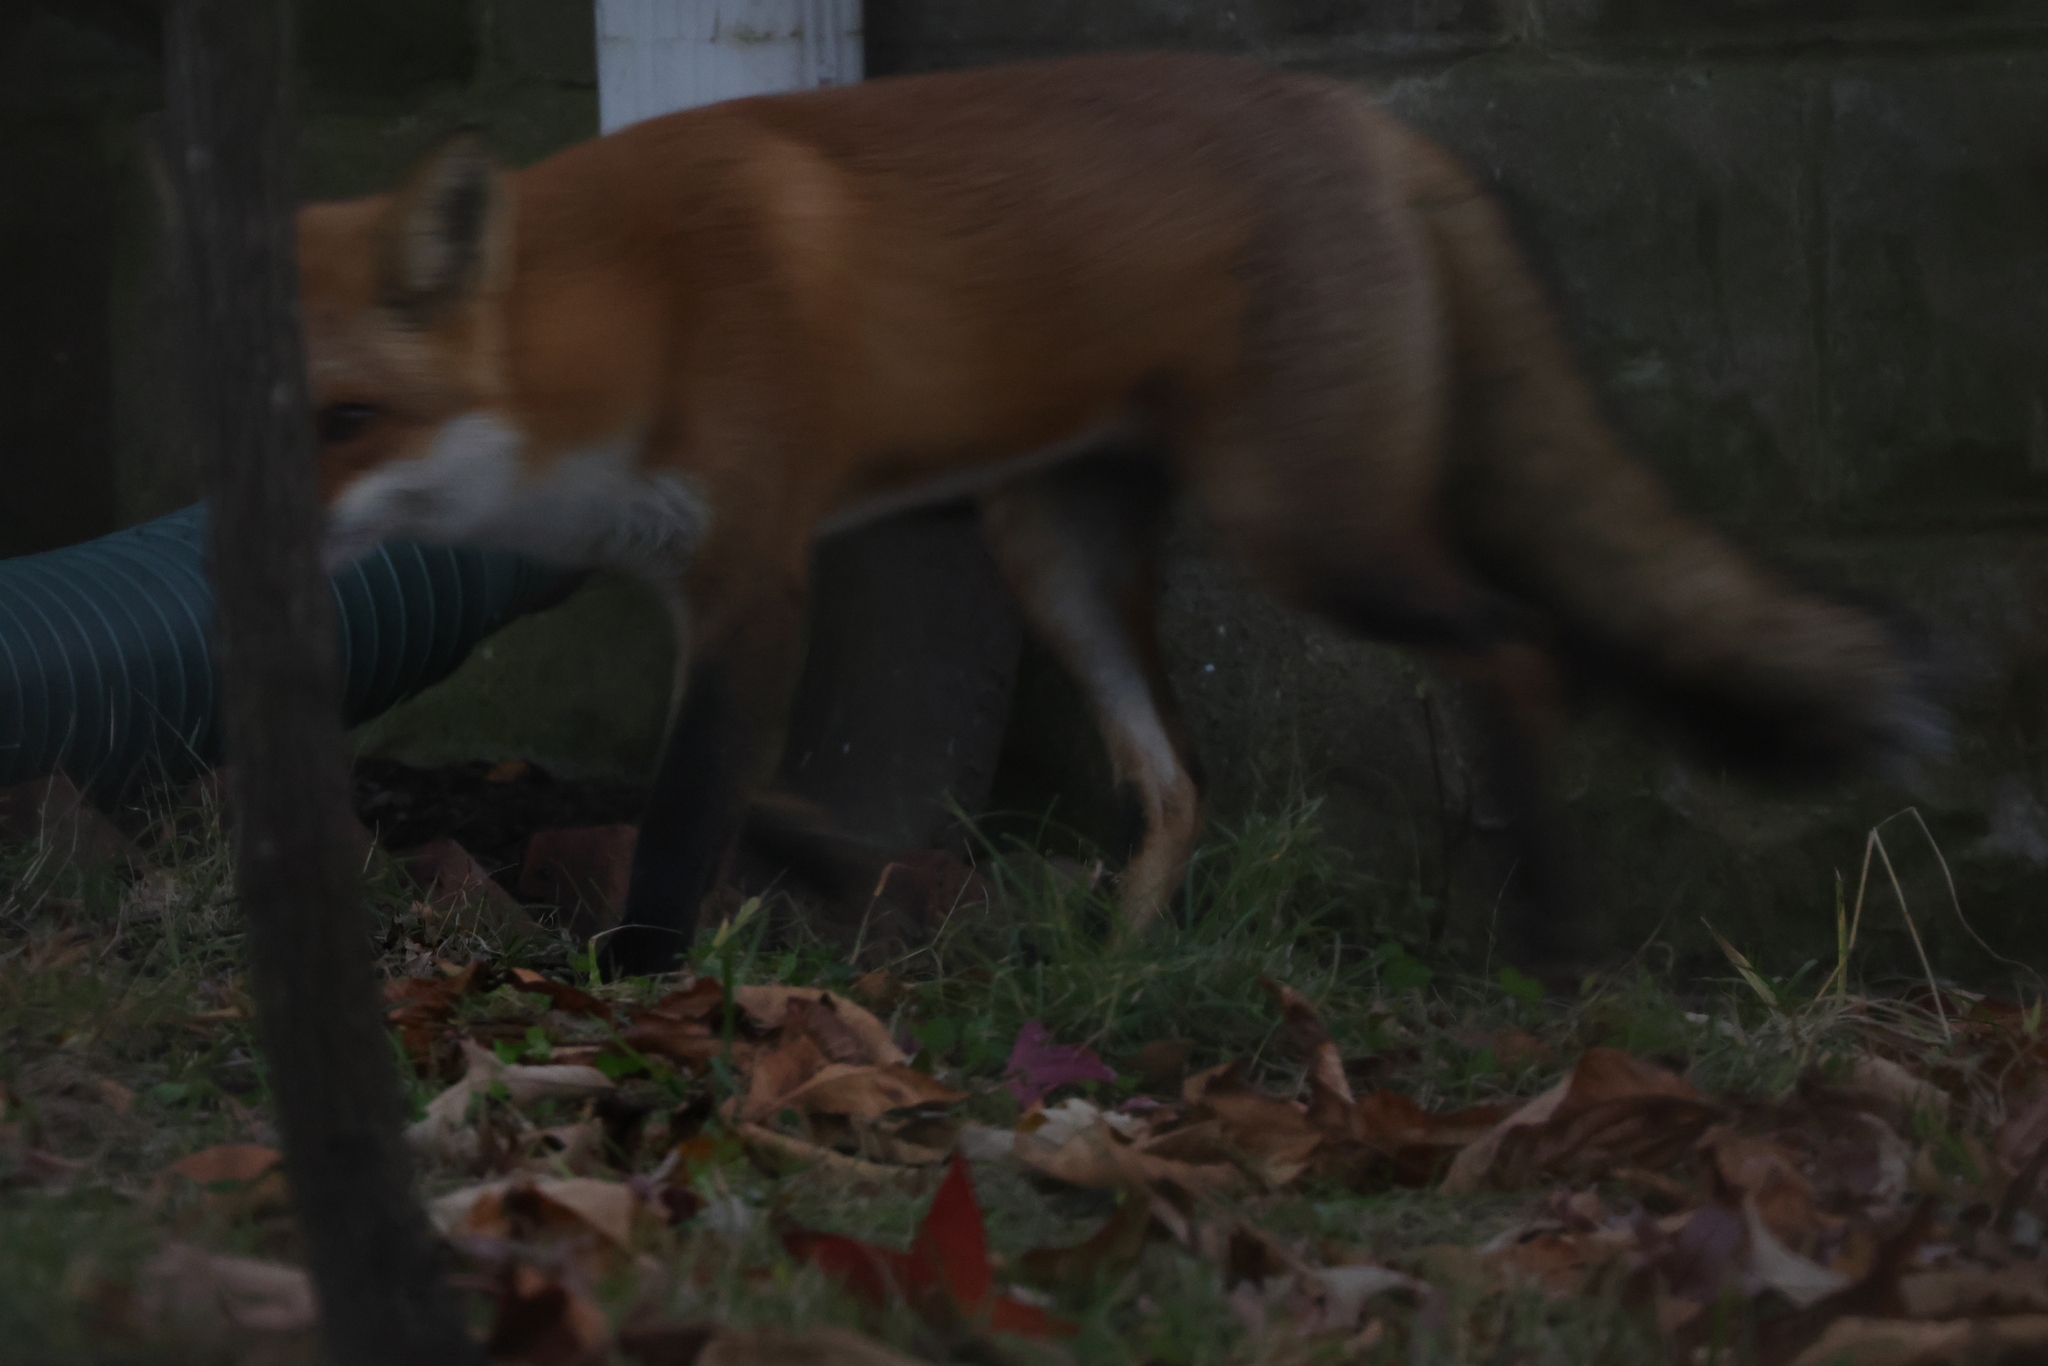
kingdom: Animalia
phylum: Chordata
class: Mammalia
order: Carnivora
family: Canidae
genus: Vulpes
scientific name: Vulpes vulpes
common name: Red fox
